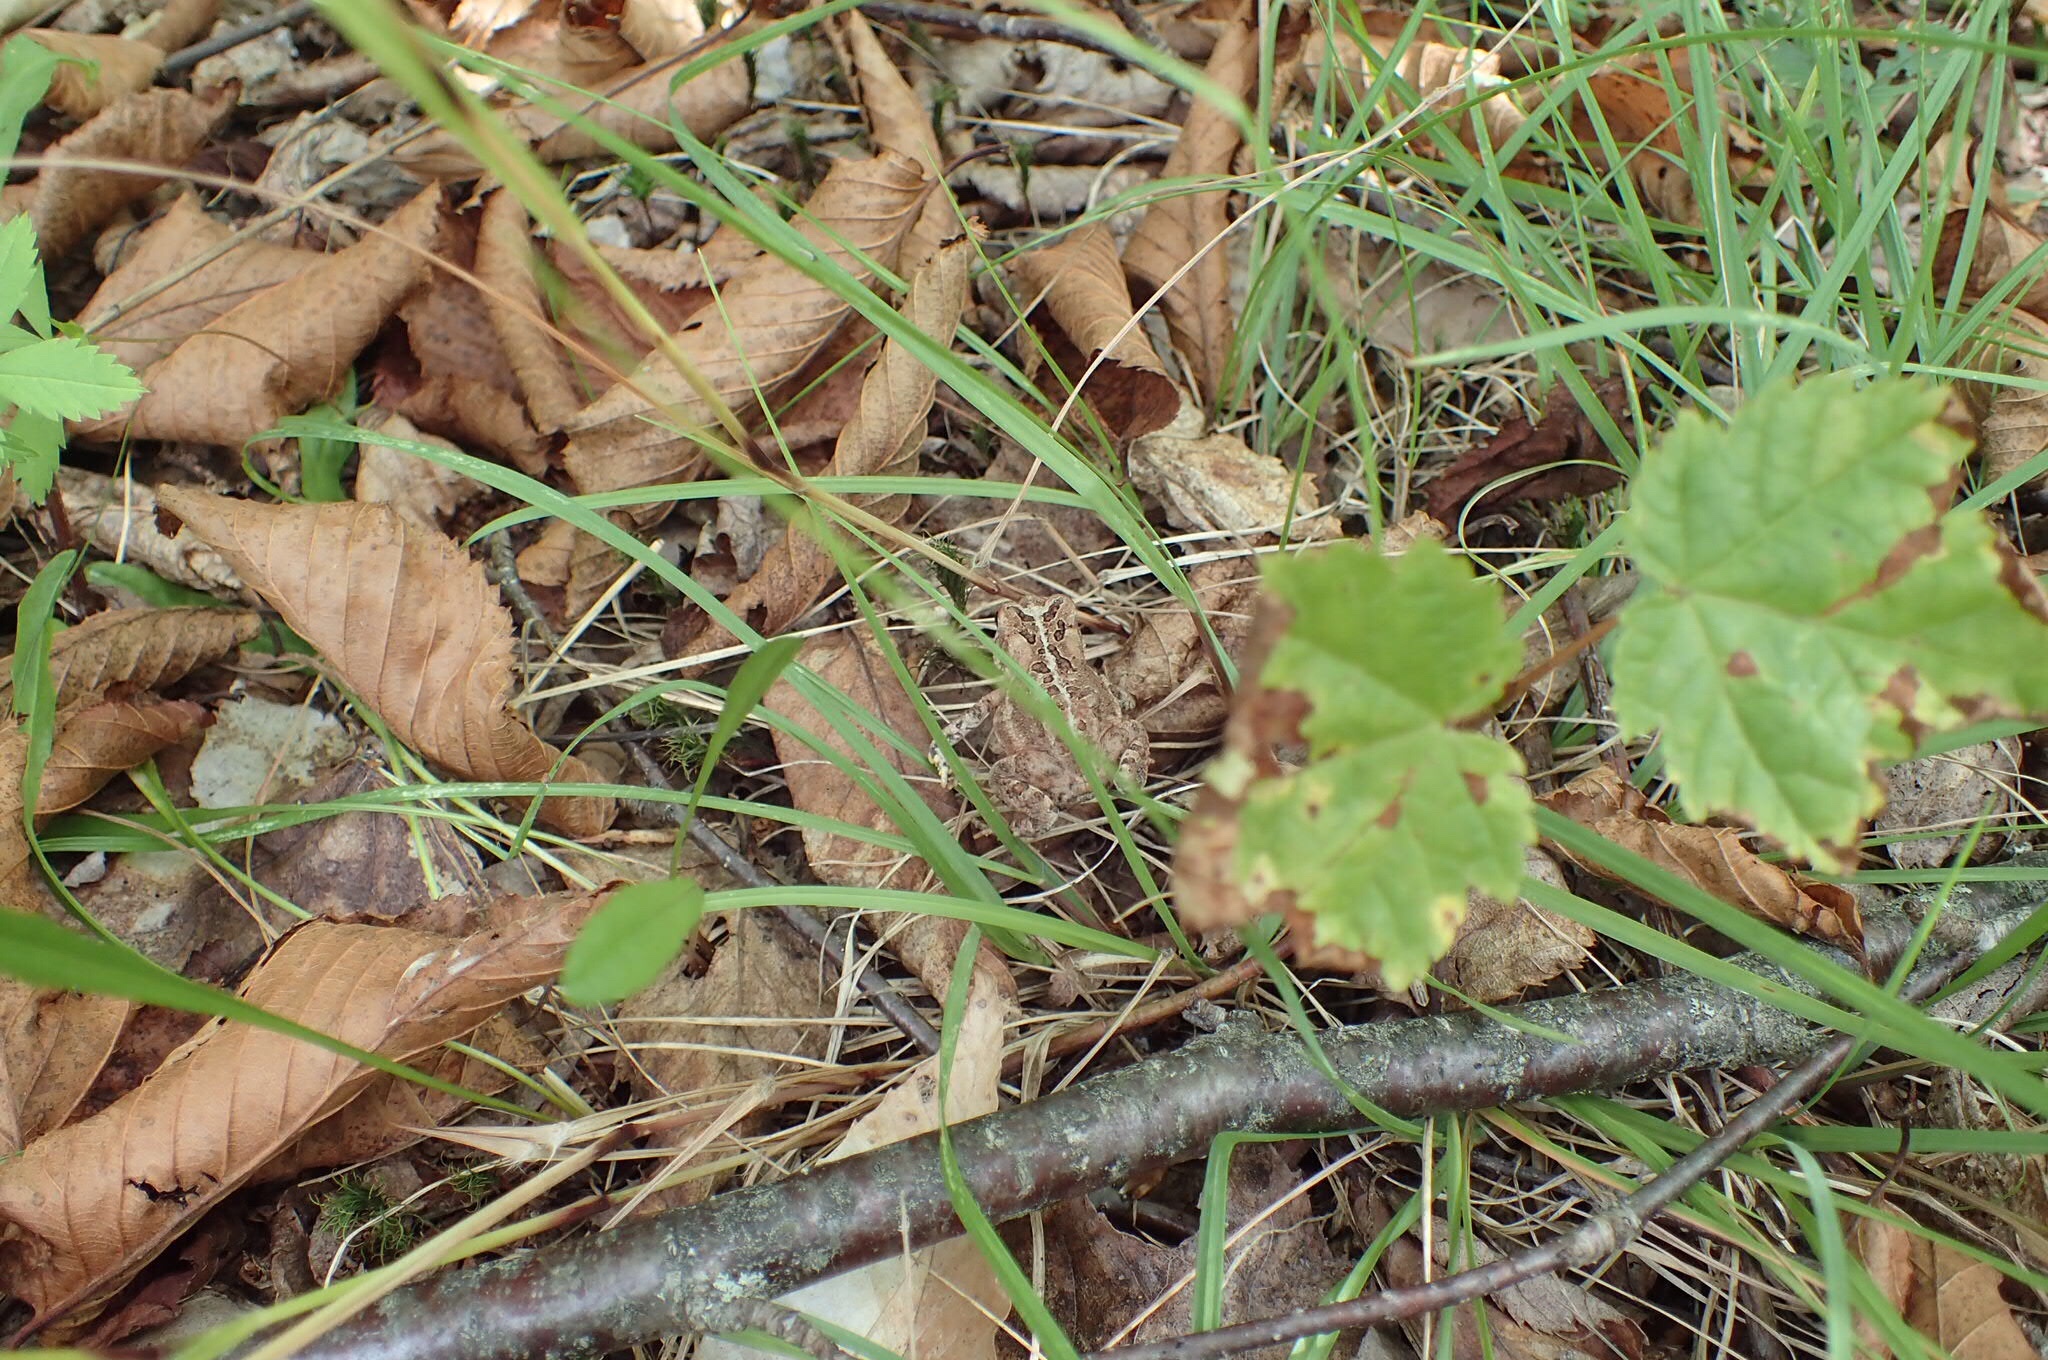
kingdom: Animalia
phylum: Chordata
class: Amphibia
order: Anura
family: Bufonidae
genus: Anaxyrus
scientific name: Anaxyrus americanus
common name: American toad
